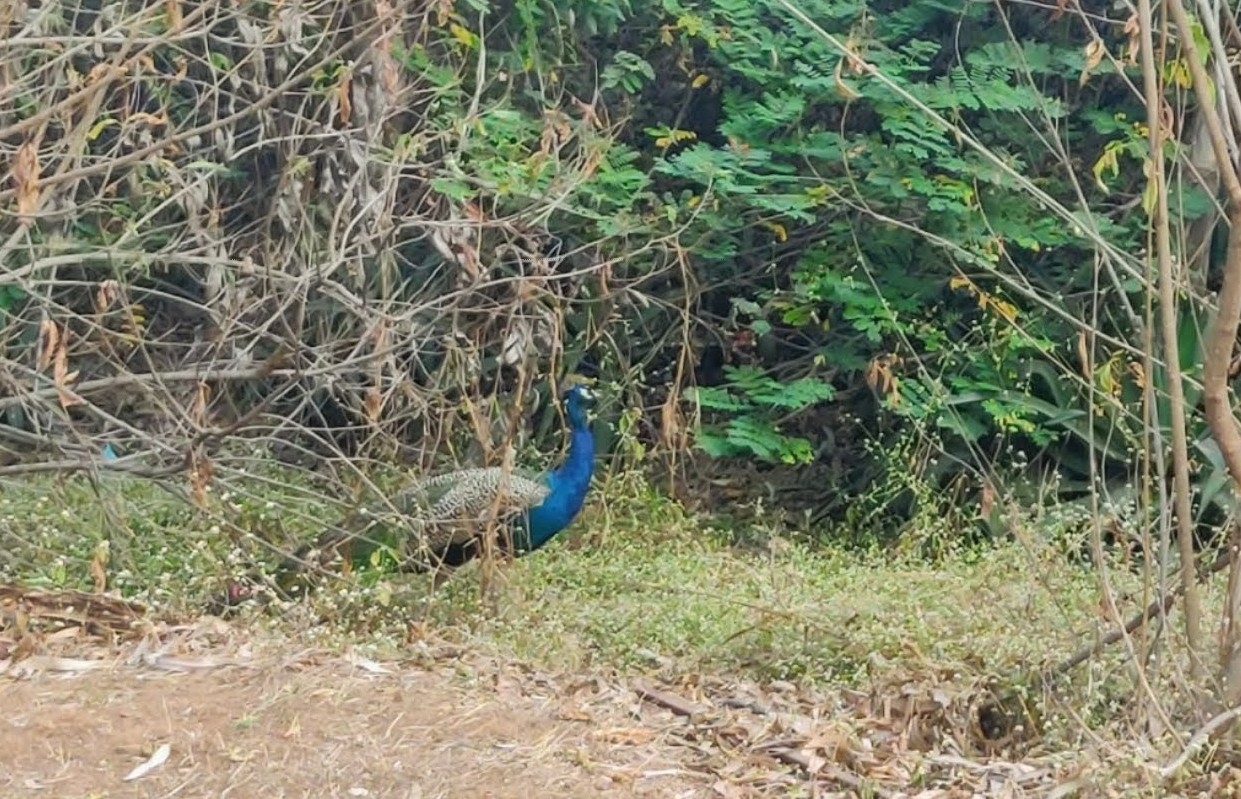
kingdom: Animalia
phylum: Chordata
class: Aves
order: Galliformes
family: Phasianidae
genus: Pavo
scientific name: Pavo cristatus
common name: Indian peafowl
